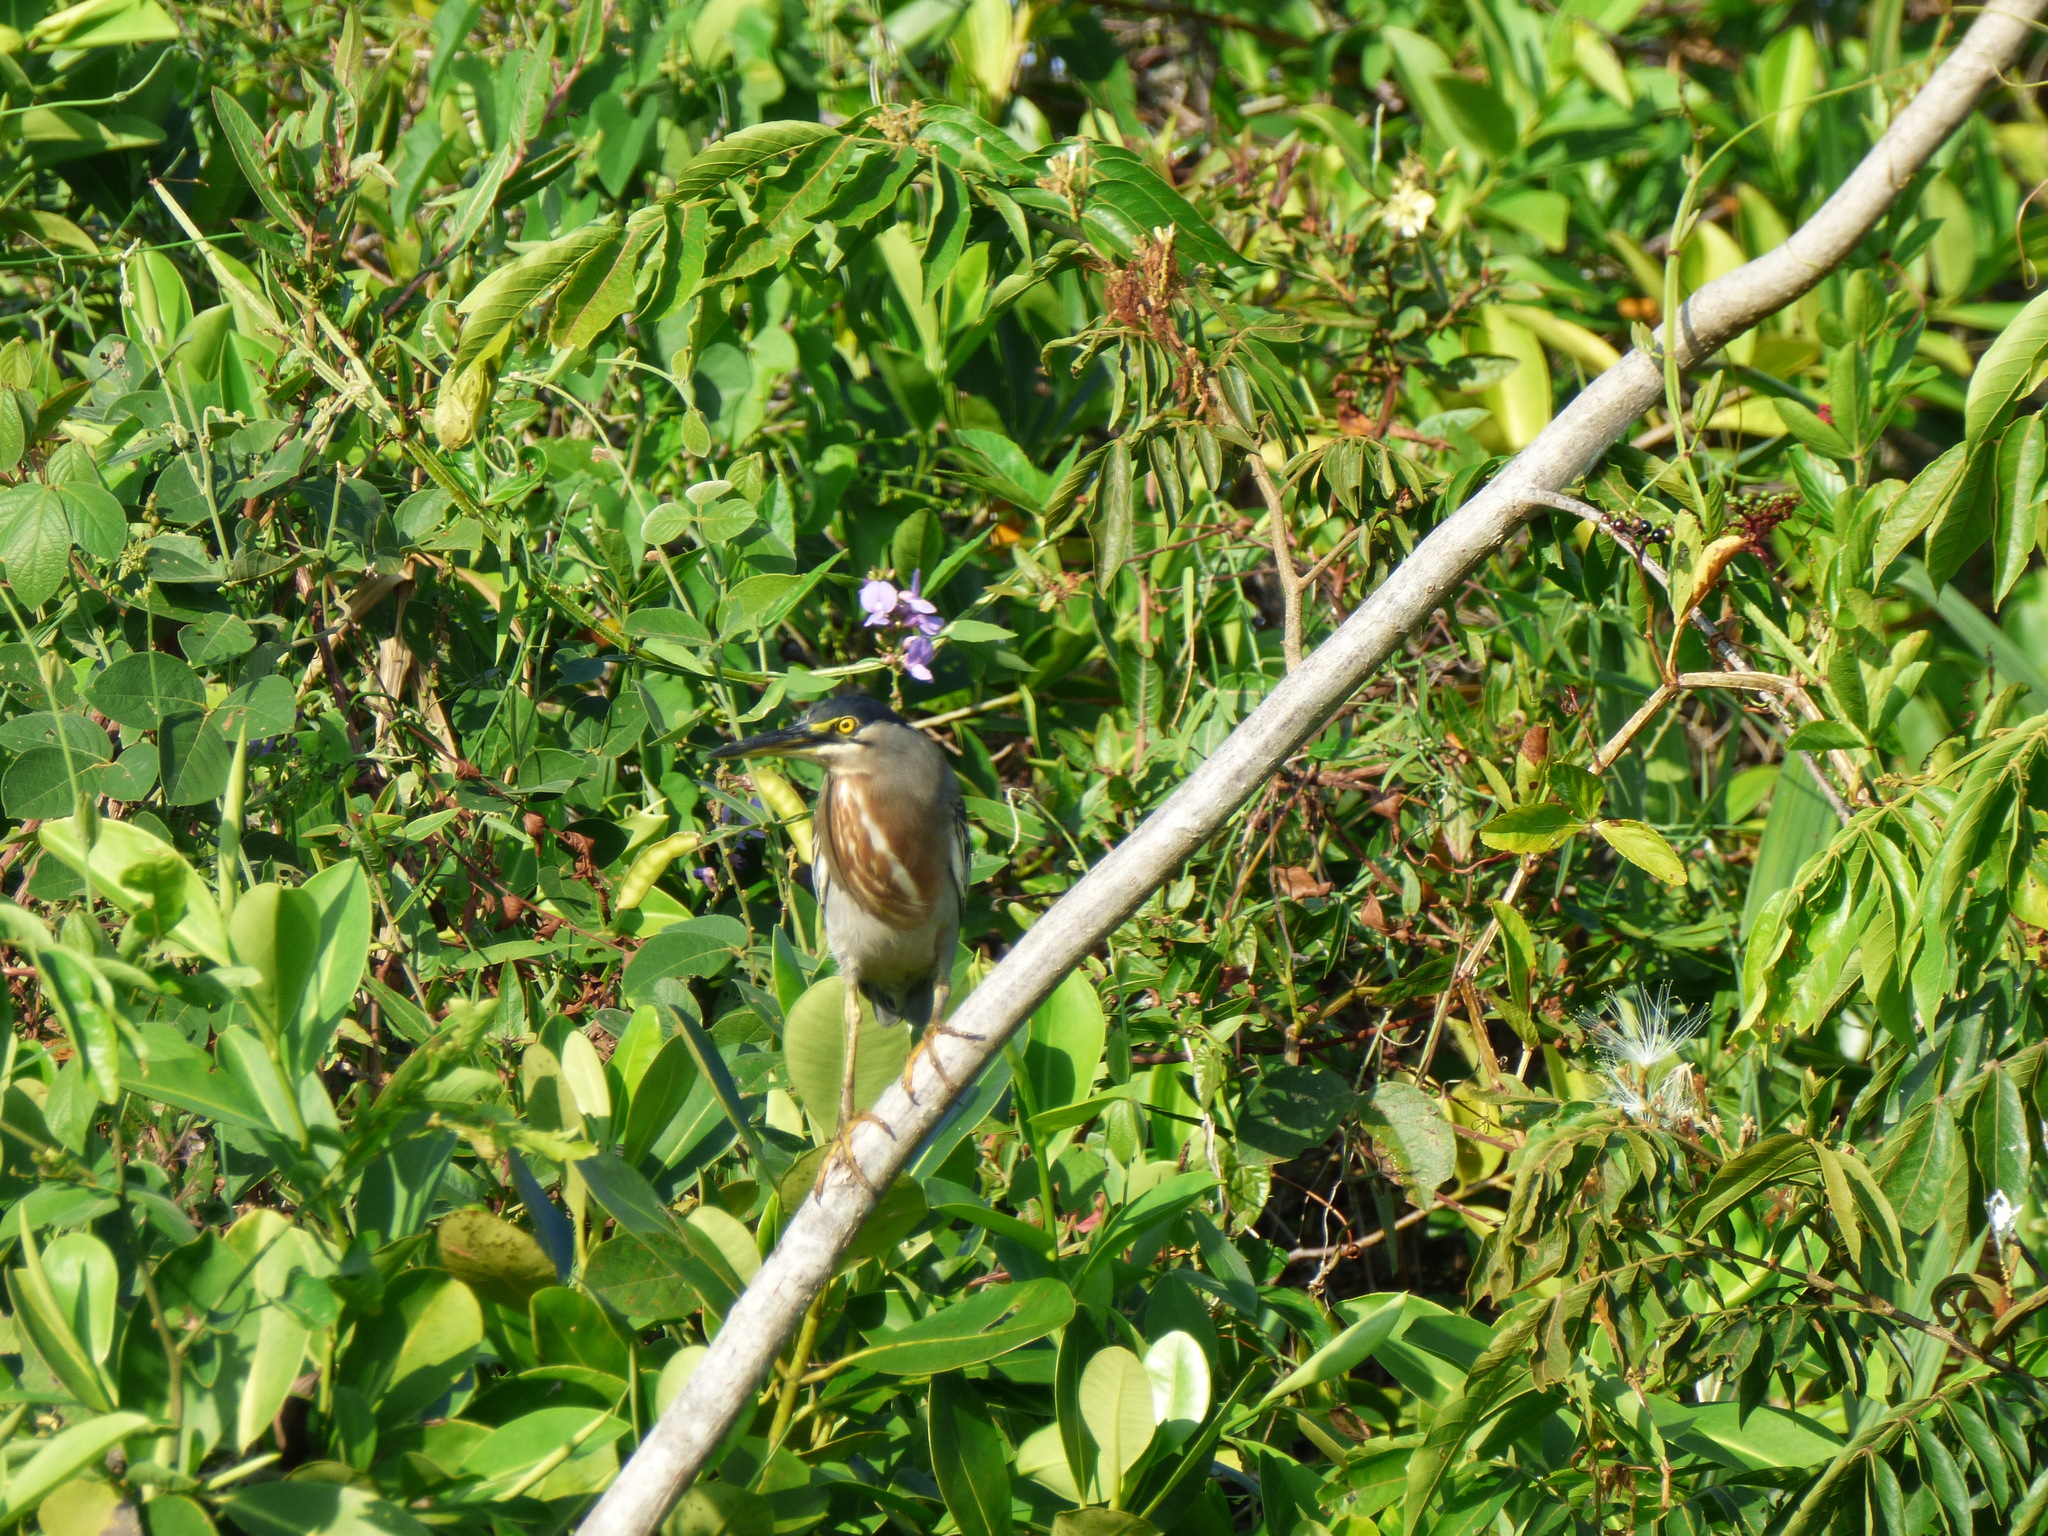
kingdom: Animalia
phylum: Chordata
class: Aves
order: Pelecaniformes
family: Ardeidae
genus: Butorides
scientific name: Butorides striata
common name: Striated heron
